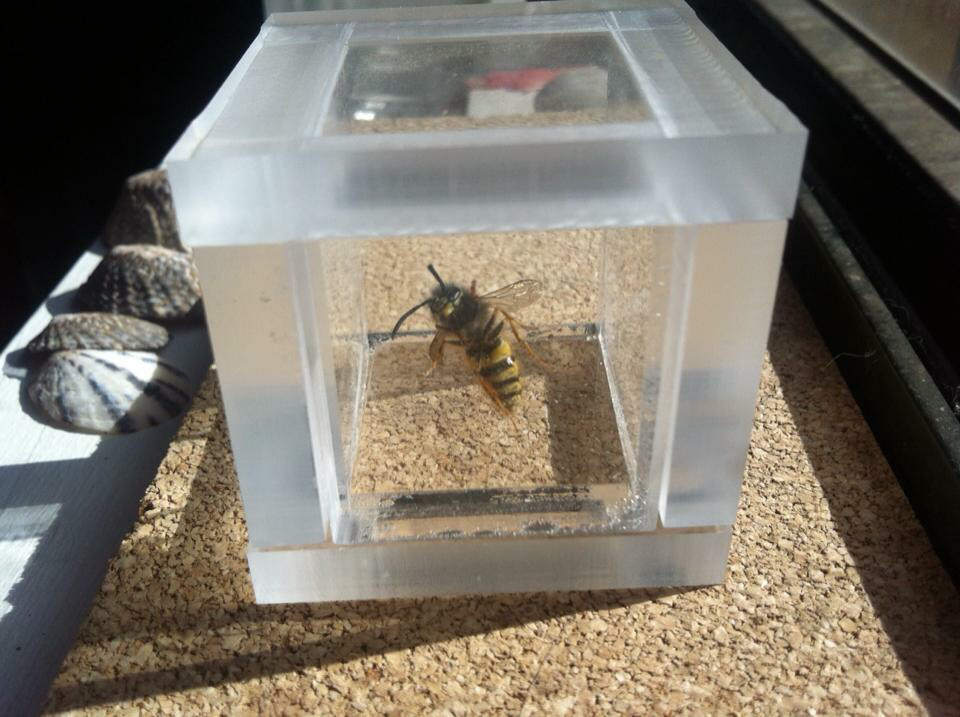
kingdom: Animalia
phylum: Arthropoda
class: Insecta
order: Hymenoptera
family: Vespidae
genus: Vespula
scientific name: Vespula germanica
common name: German wasp
